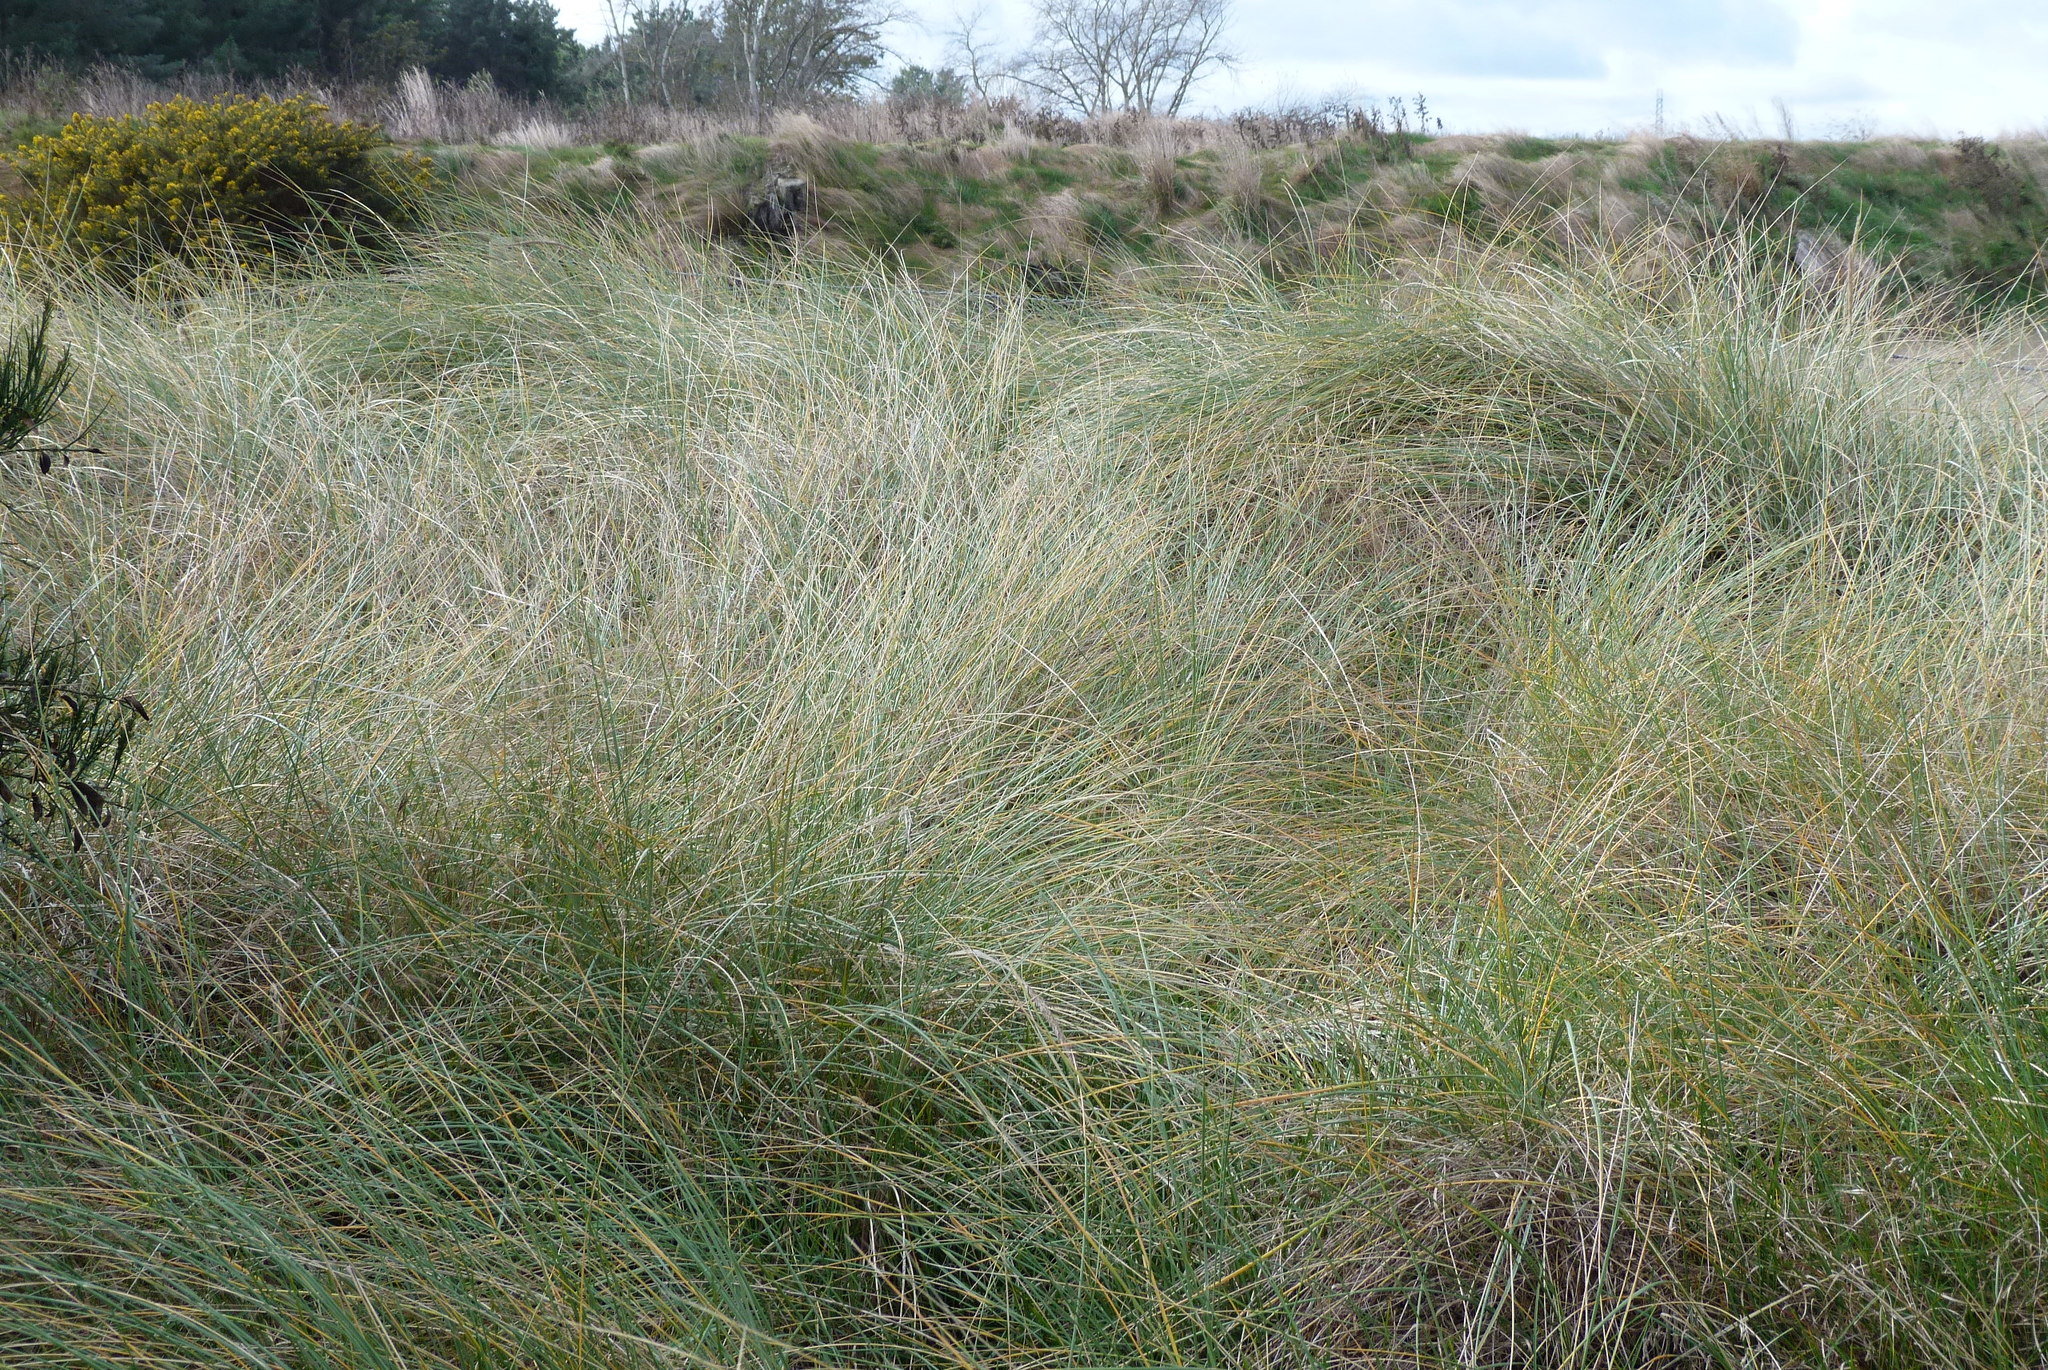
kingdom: Plantae
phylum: Tracheophyta
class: Liliopsida
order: Poales
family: Poaceae
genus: Calamagrostis
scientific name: Calamagrostis arenaria
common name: European beachgrass
